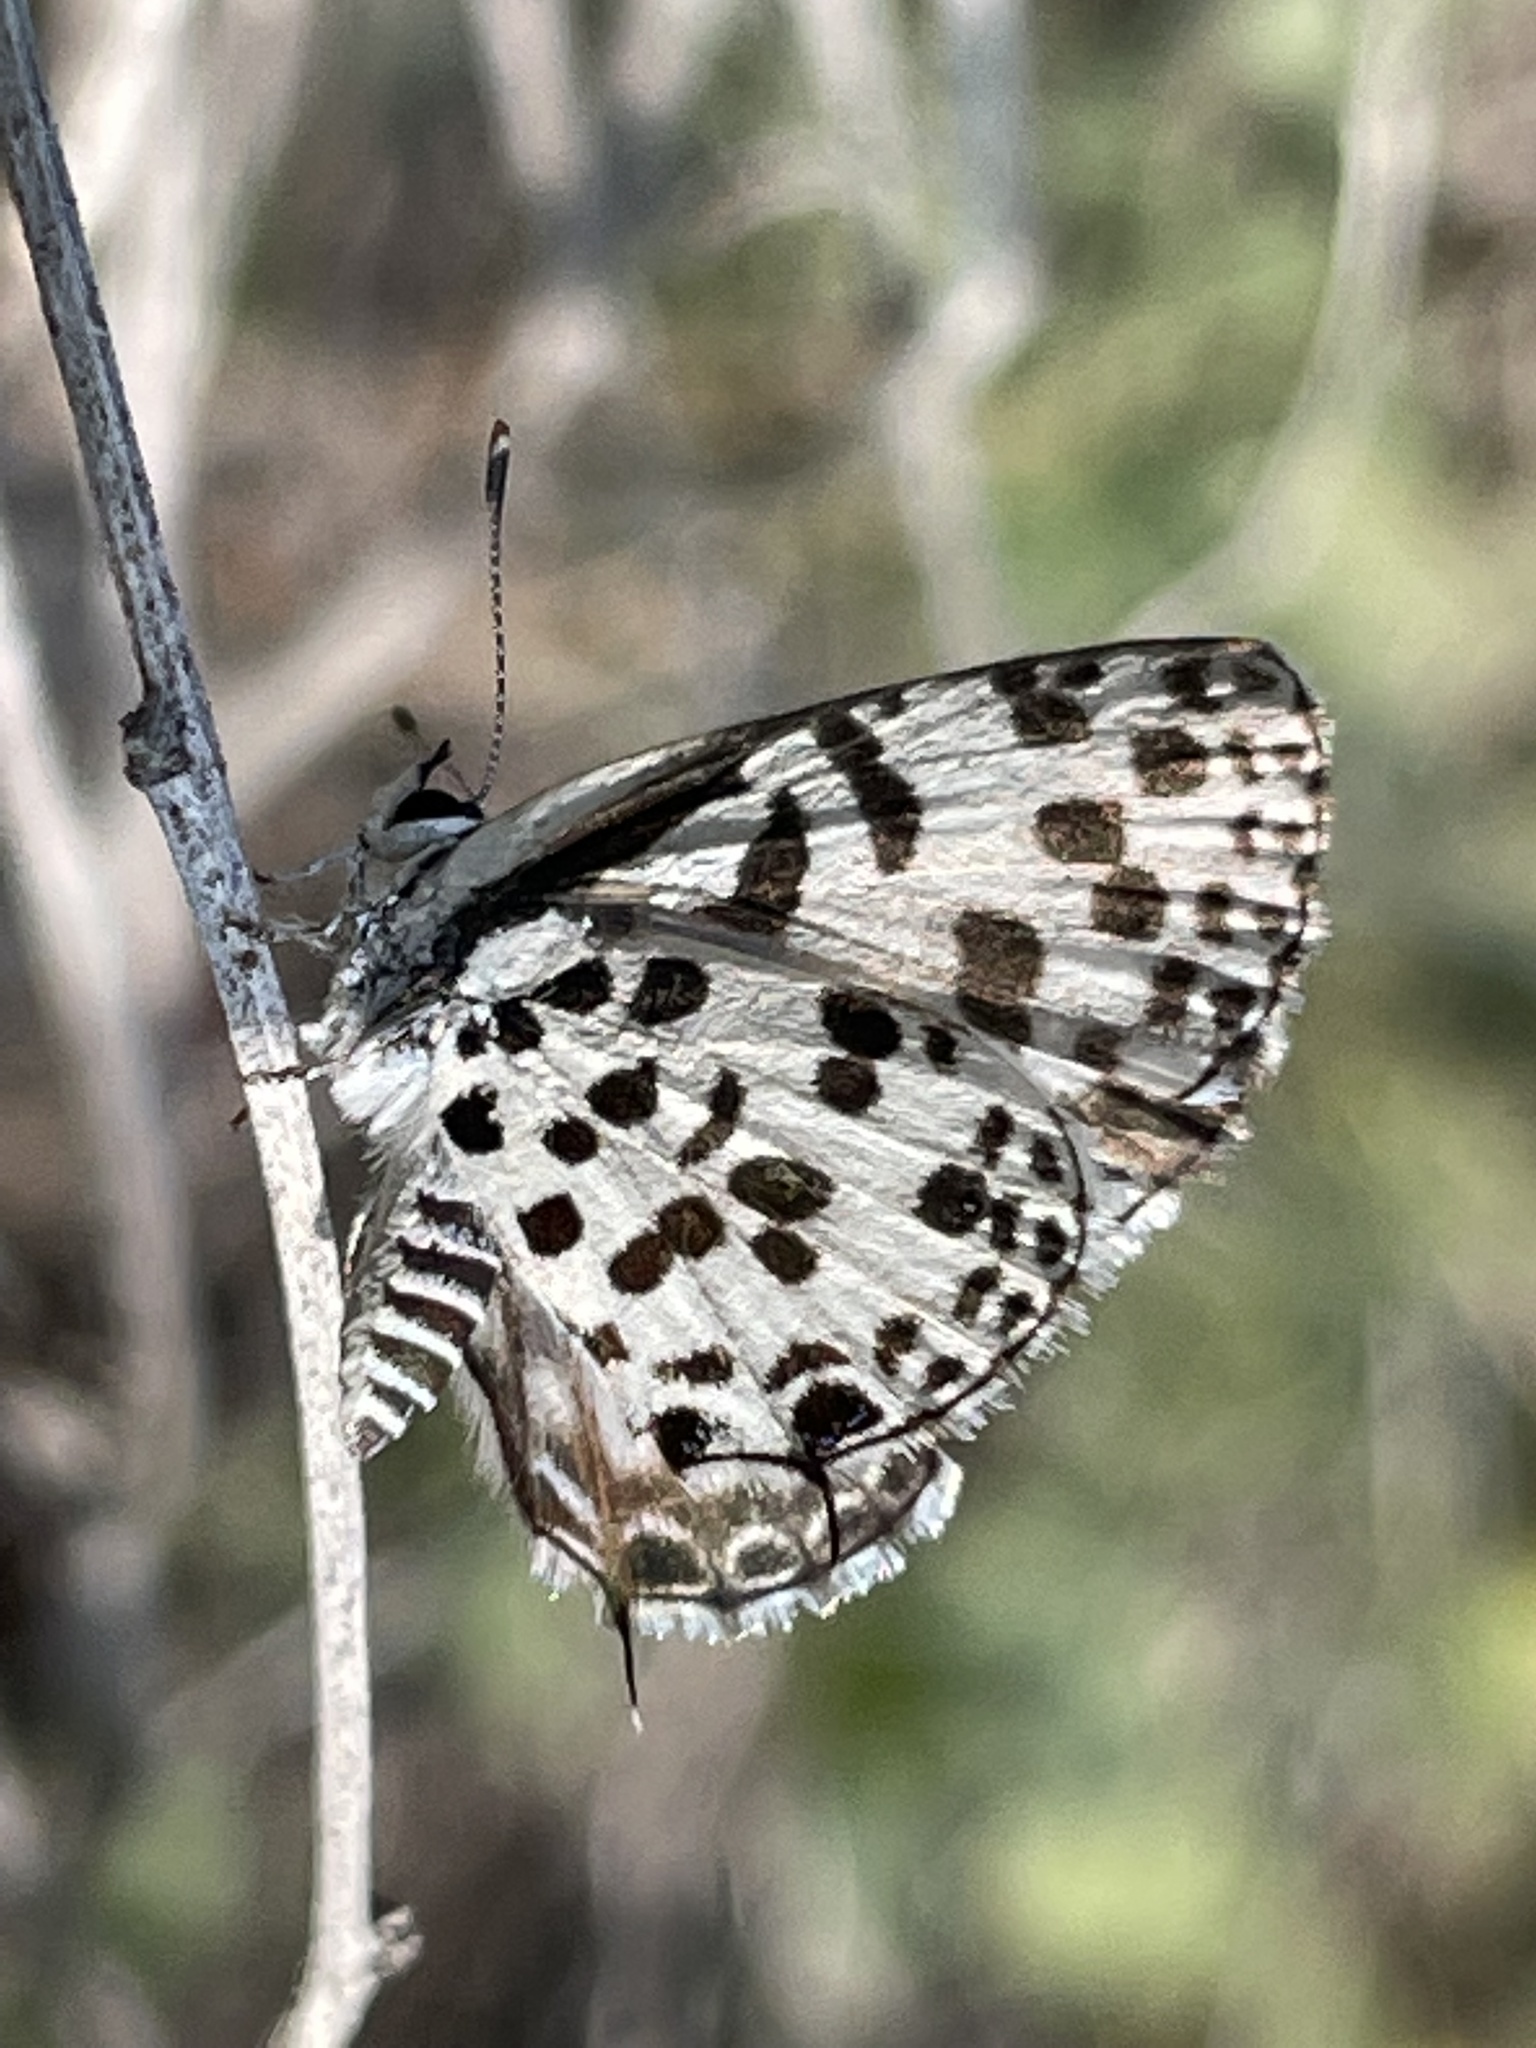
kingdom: Animalia
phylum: Arthropoda
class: Insecta
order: Lepidoptera
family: Lycaenidae
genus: Zintha
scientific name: Zintha hintza
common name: Hintza pierrot
